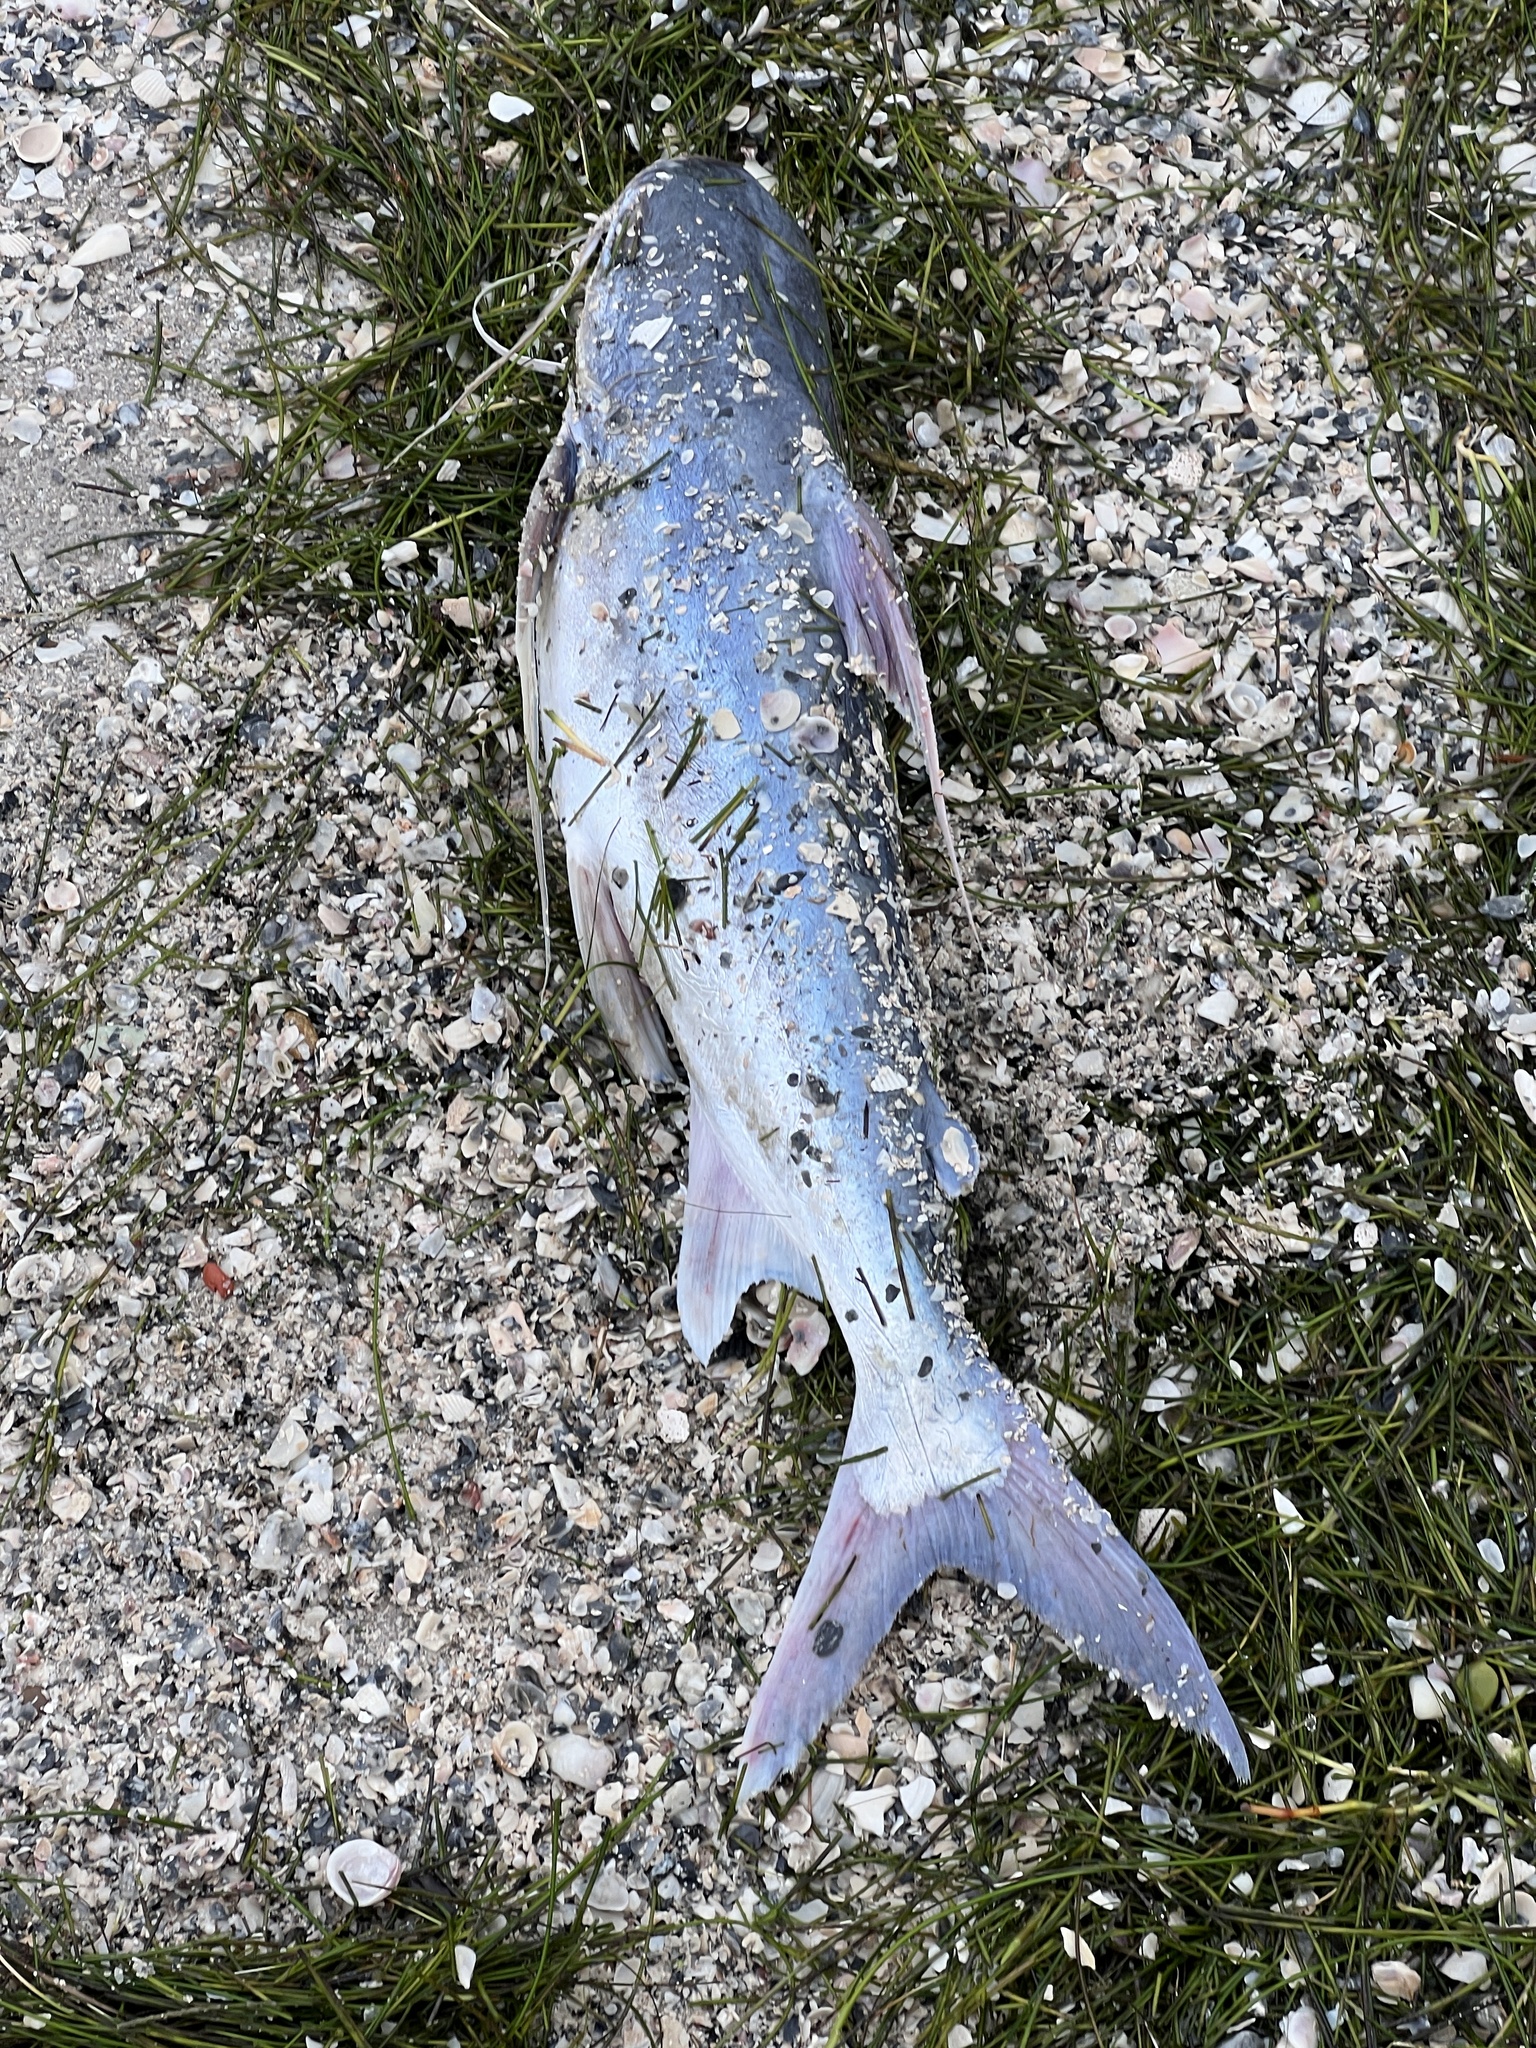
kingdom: Animalia
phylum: Chordata
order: Siluriformes
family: Ariidae
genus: Bagre
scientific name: Bagre marinus
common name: Gafftopsail sea catfish
